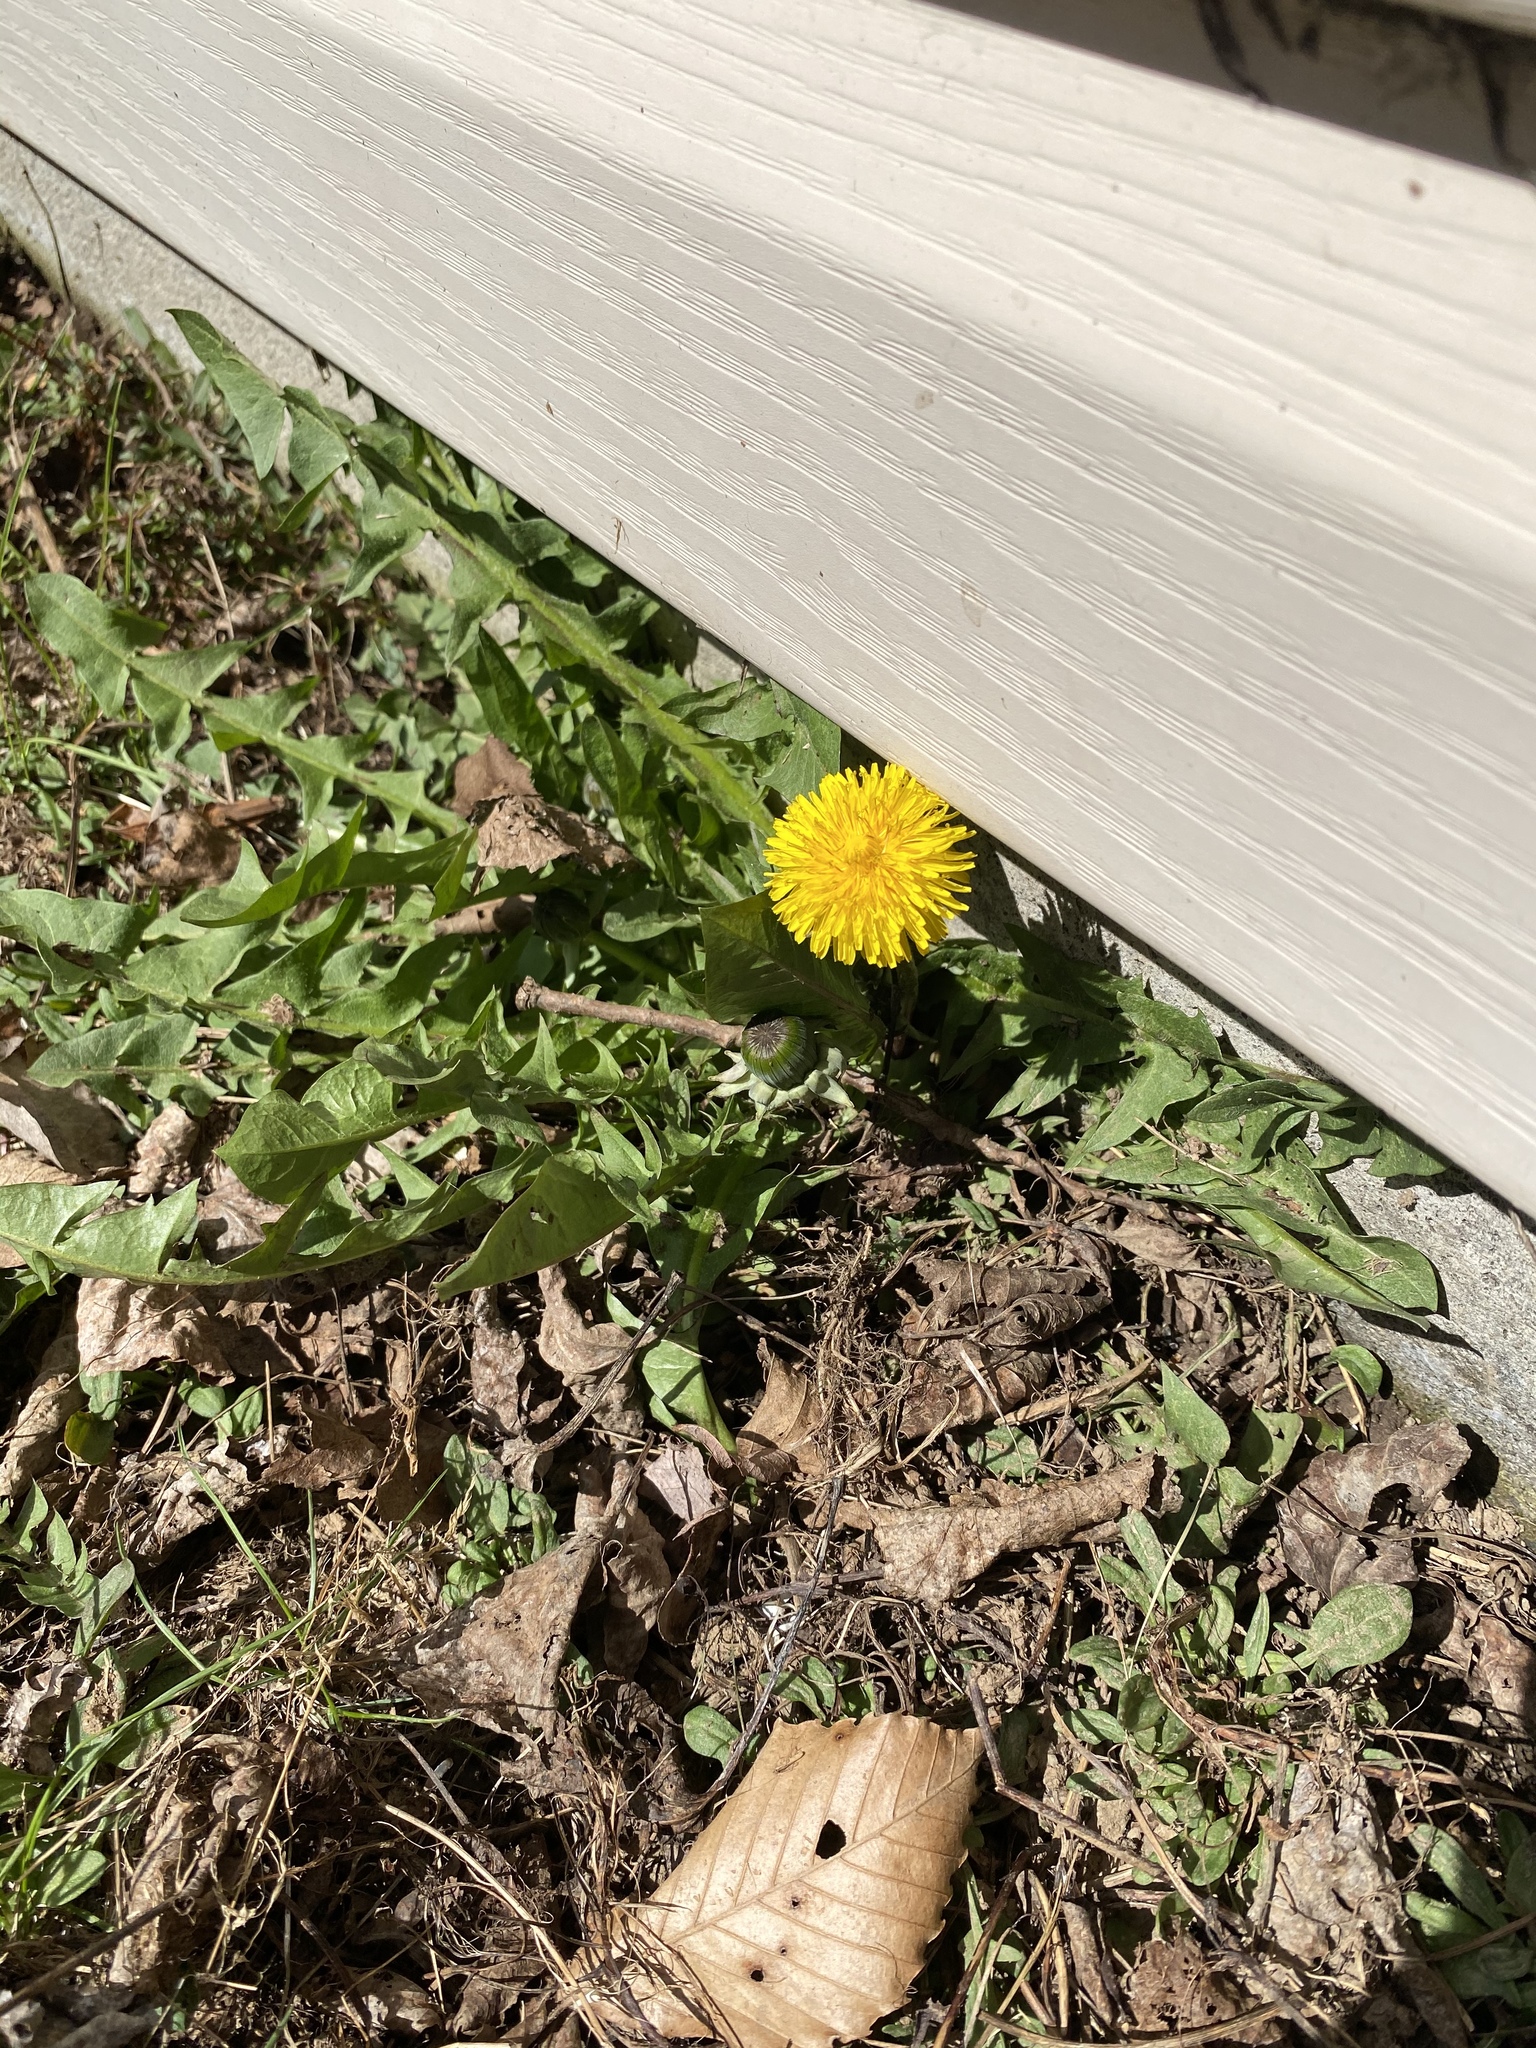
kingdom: Plantae
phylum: Tracheophyta
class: Magnoliopsida
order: Asterales
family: Asteraceae
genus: Taraxacum
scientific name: Taraxacum officinale
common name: Common dandelion
